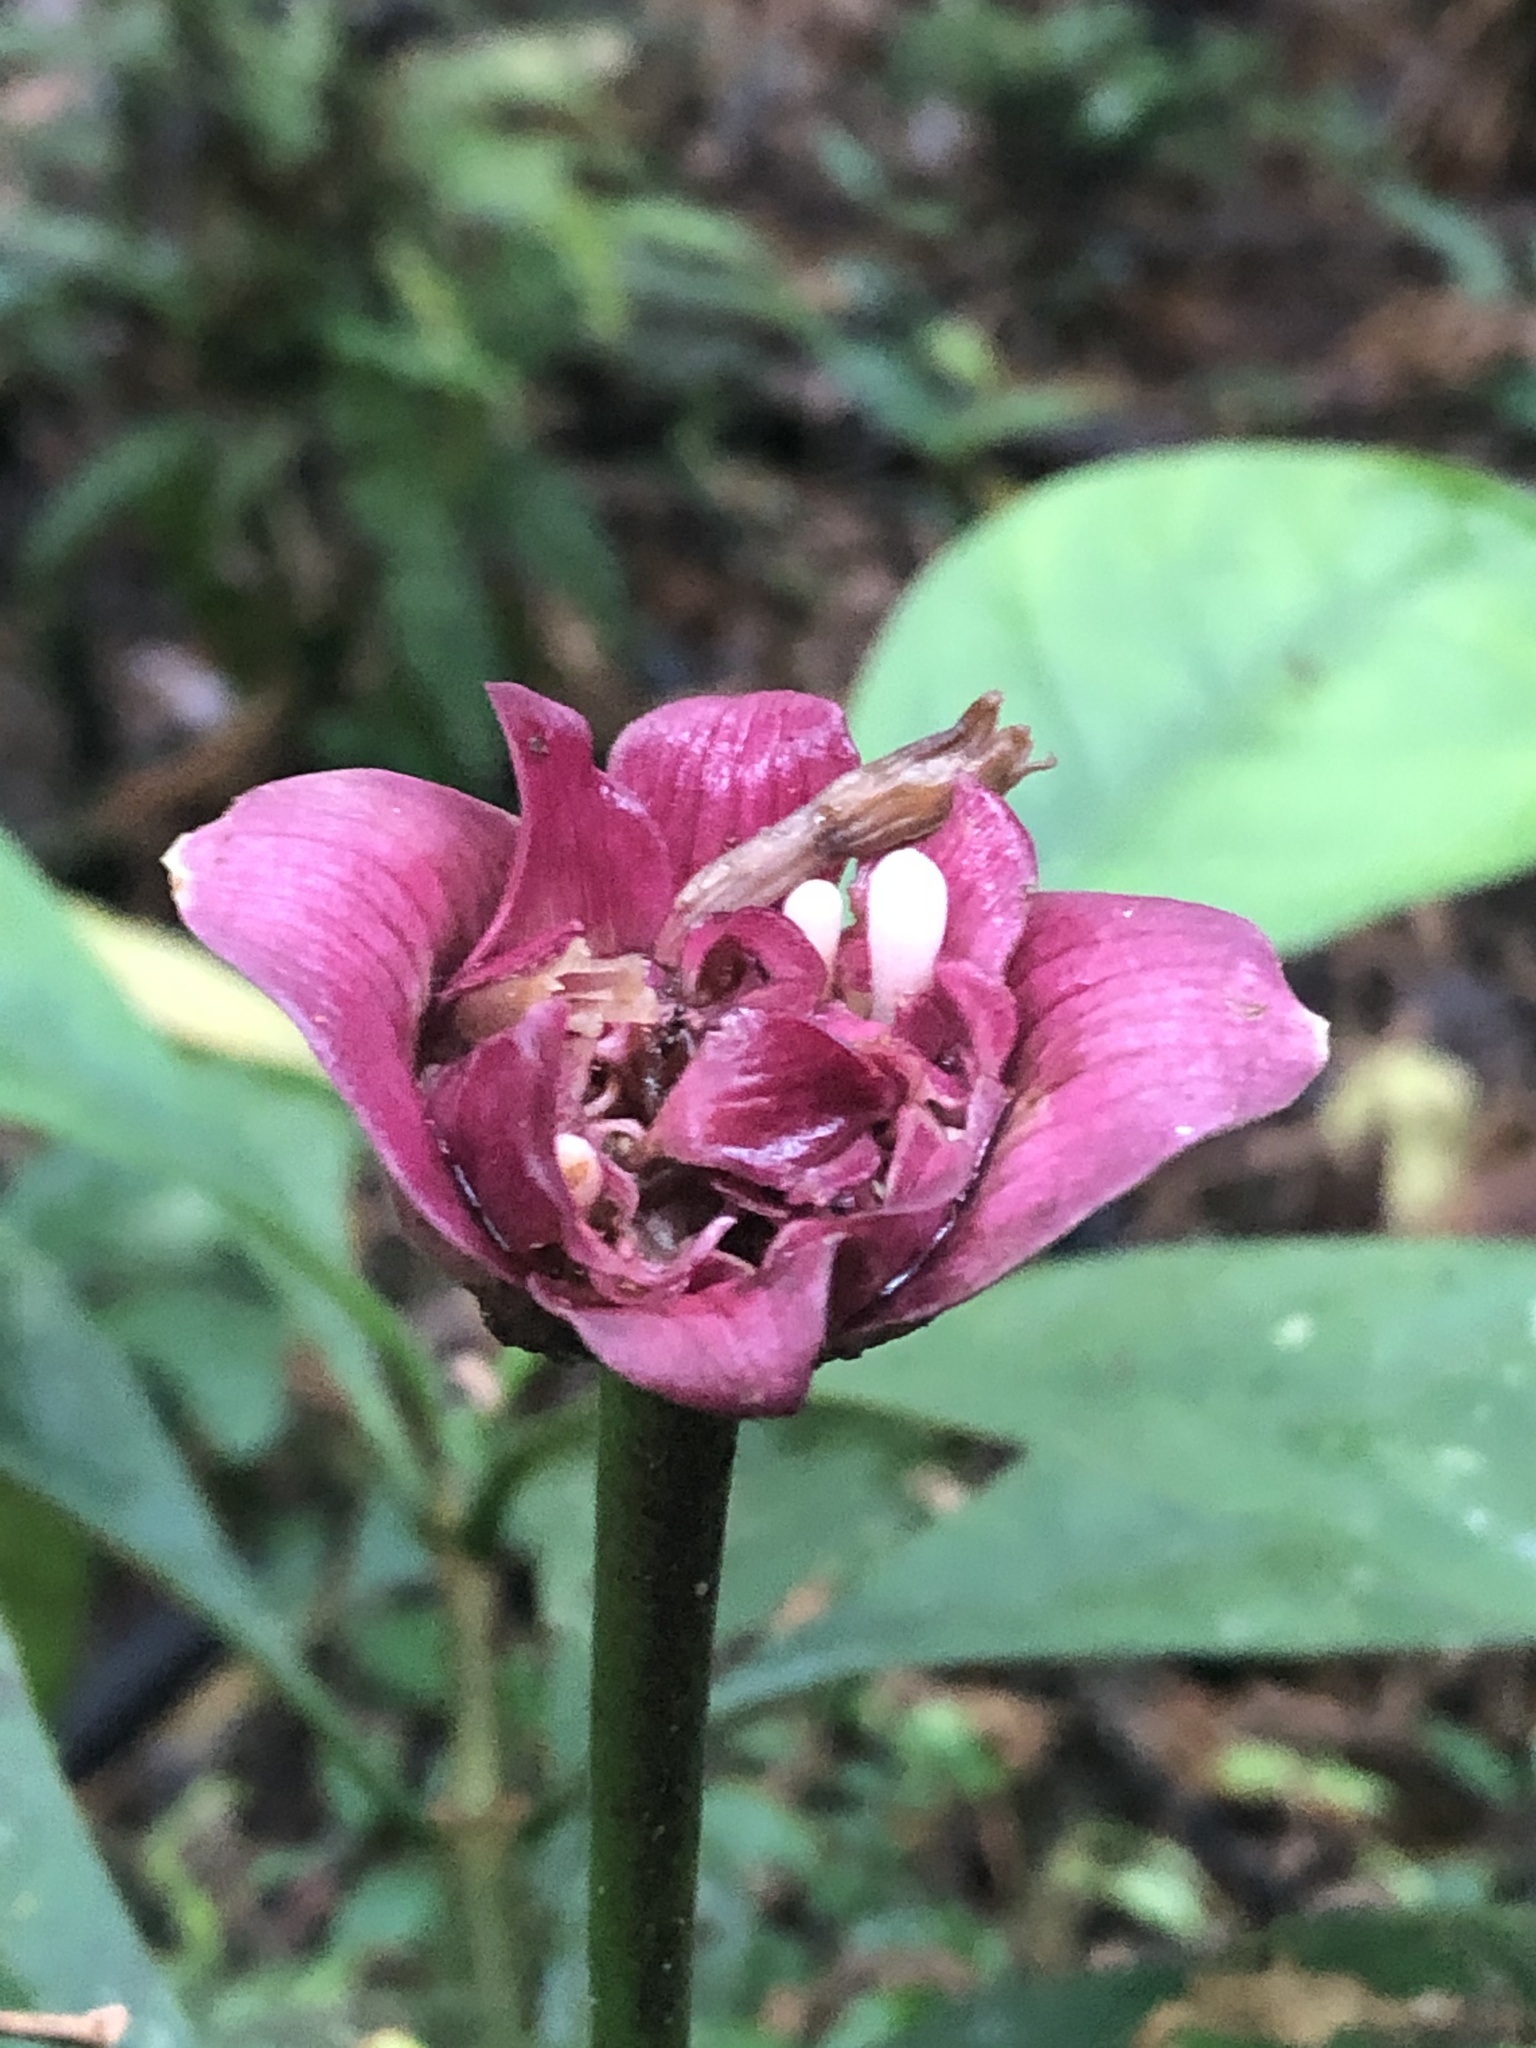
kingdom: Plantae
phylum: Tracheophyta
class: Magnoliopsida
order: Gentianales
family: Rubiaceae
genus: Carapichea
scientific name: Carapichea affinis
